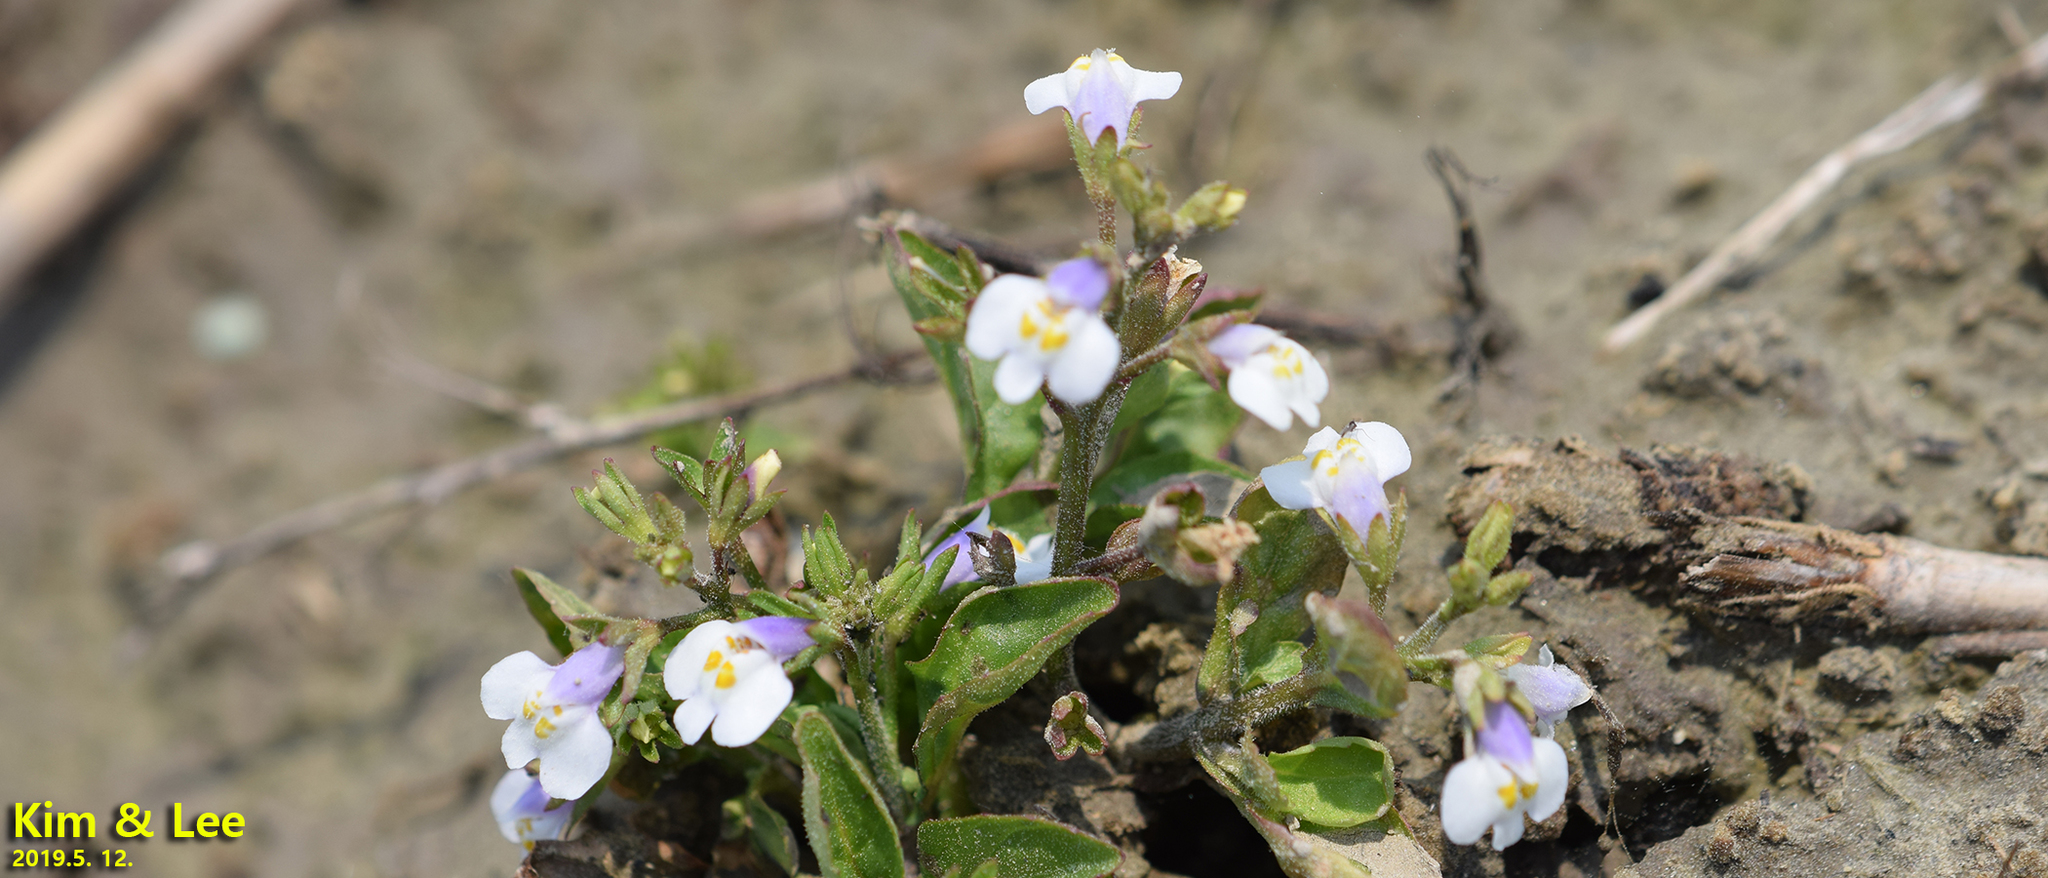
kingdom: Plantae
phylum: Tracheophyta
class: Magnoliopsida
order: Lamiales
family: Mazaceae
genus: Mazus
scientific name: Mazus pumilus
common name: Japanese mazus
